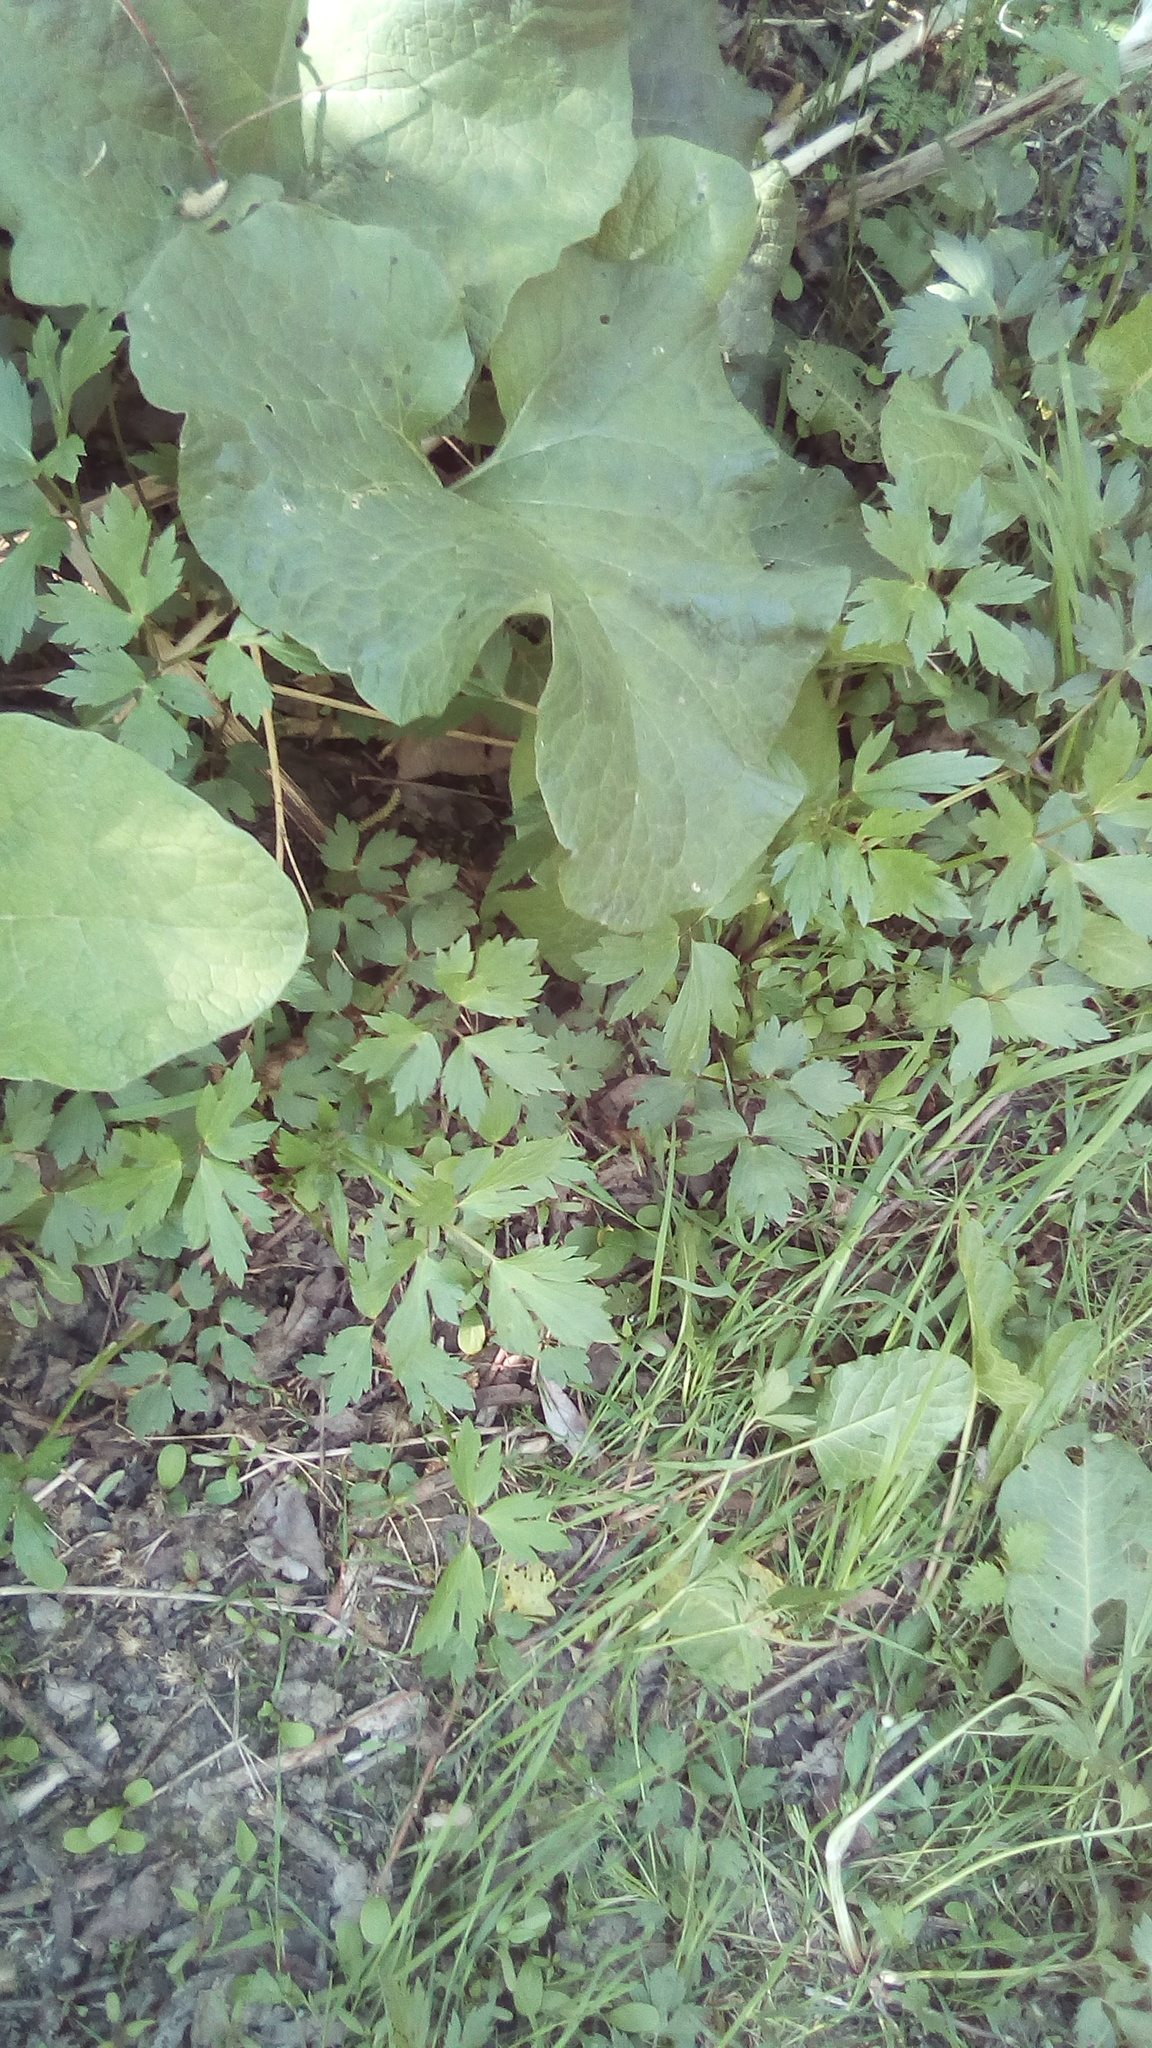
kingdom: Plantae
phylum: Tracheophyta
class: Magnoliopsida
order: Ranunculales
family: Ranunculaceae
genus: Ranunculus
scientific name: Ranunculus repens
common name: Creeping buttercup
